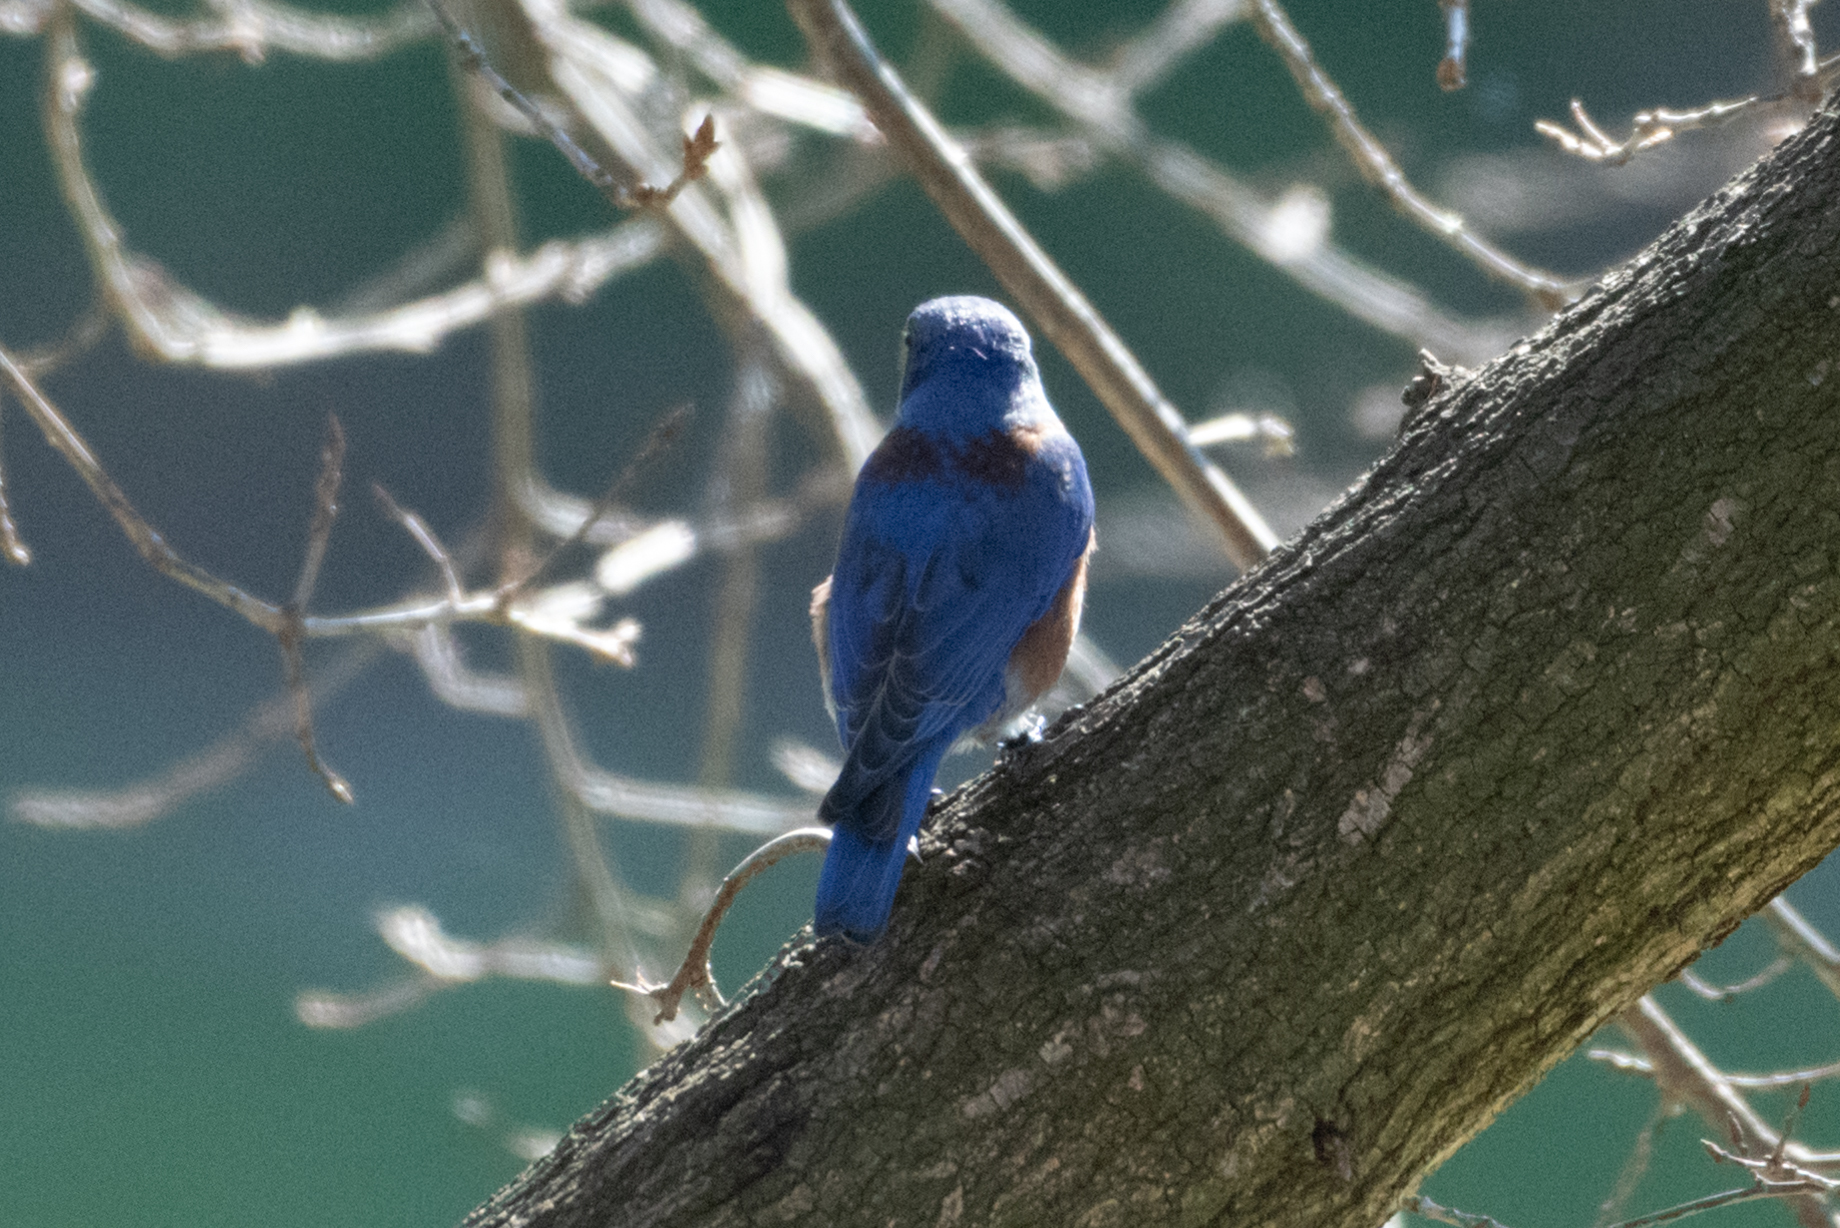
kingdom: Animalia
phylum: Chordata
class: Aves
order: Passeriformes
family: Turdidae
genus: Sialia
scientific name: Sialia mexicana
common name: Western bluebird
